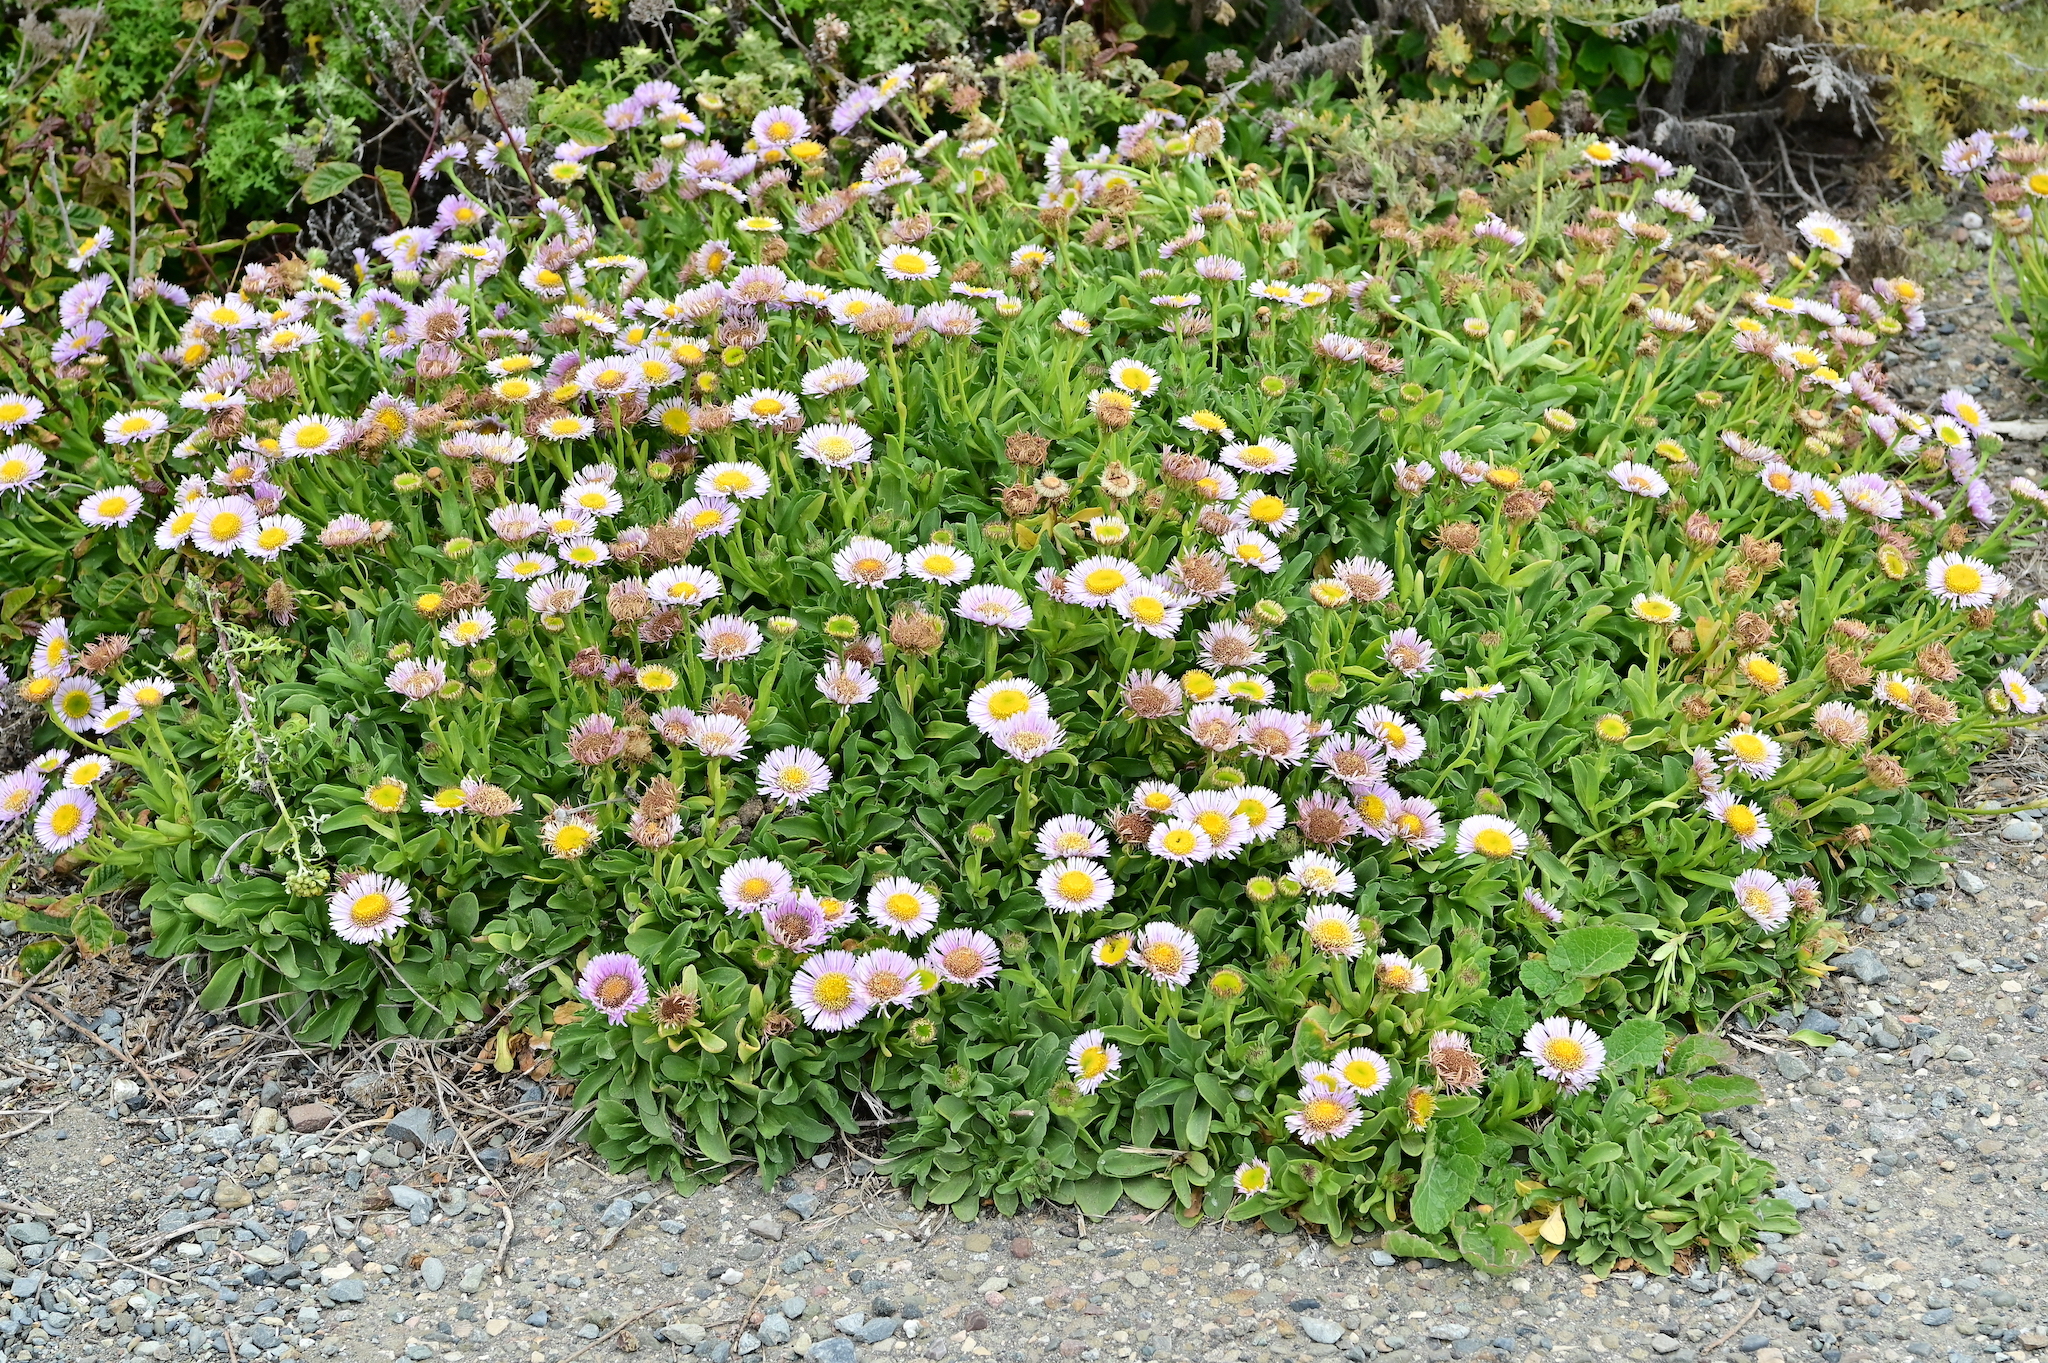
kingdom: Plantae
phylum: Tracheophyta
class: Magnoliopsida
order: Asterales
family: Asteraceae
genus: Erigeron
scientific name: Erigeron glaucus
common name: Seaside daisy
